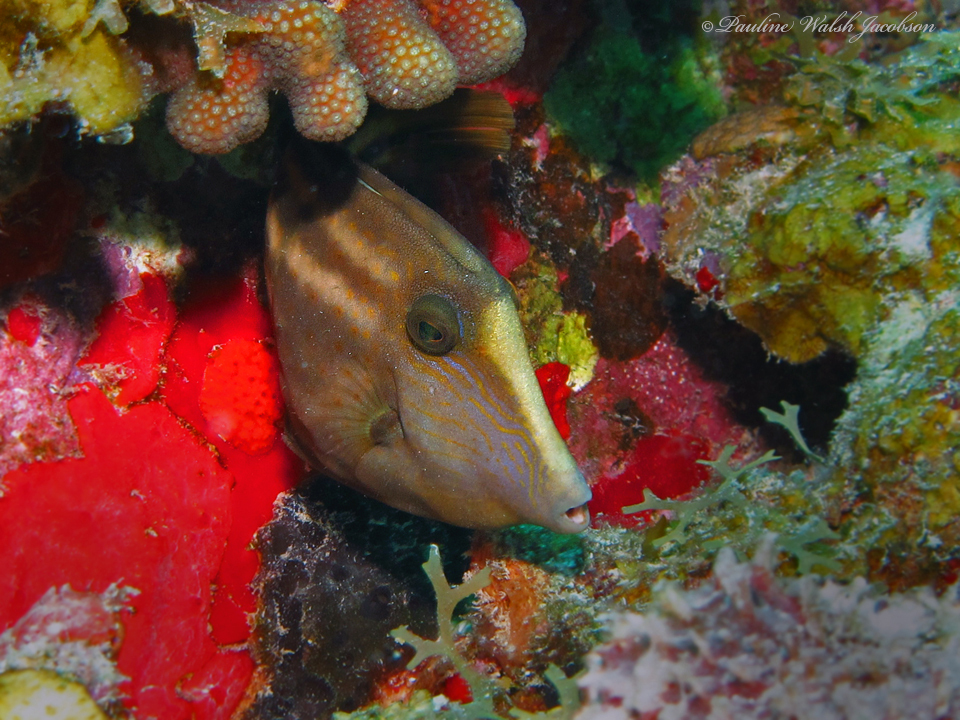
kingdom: Animalia
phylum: Chordata
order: Tetraodontiformes
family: Monacanthidae
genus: Cantherhines
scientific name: Cantherhines pullus
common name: Orangespotted filefish
